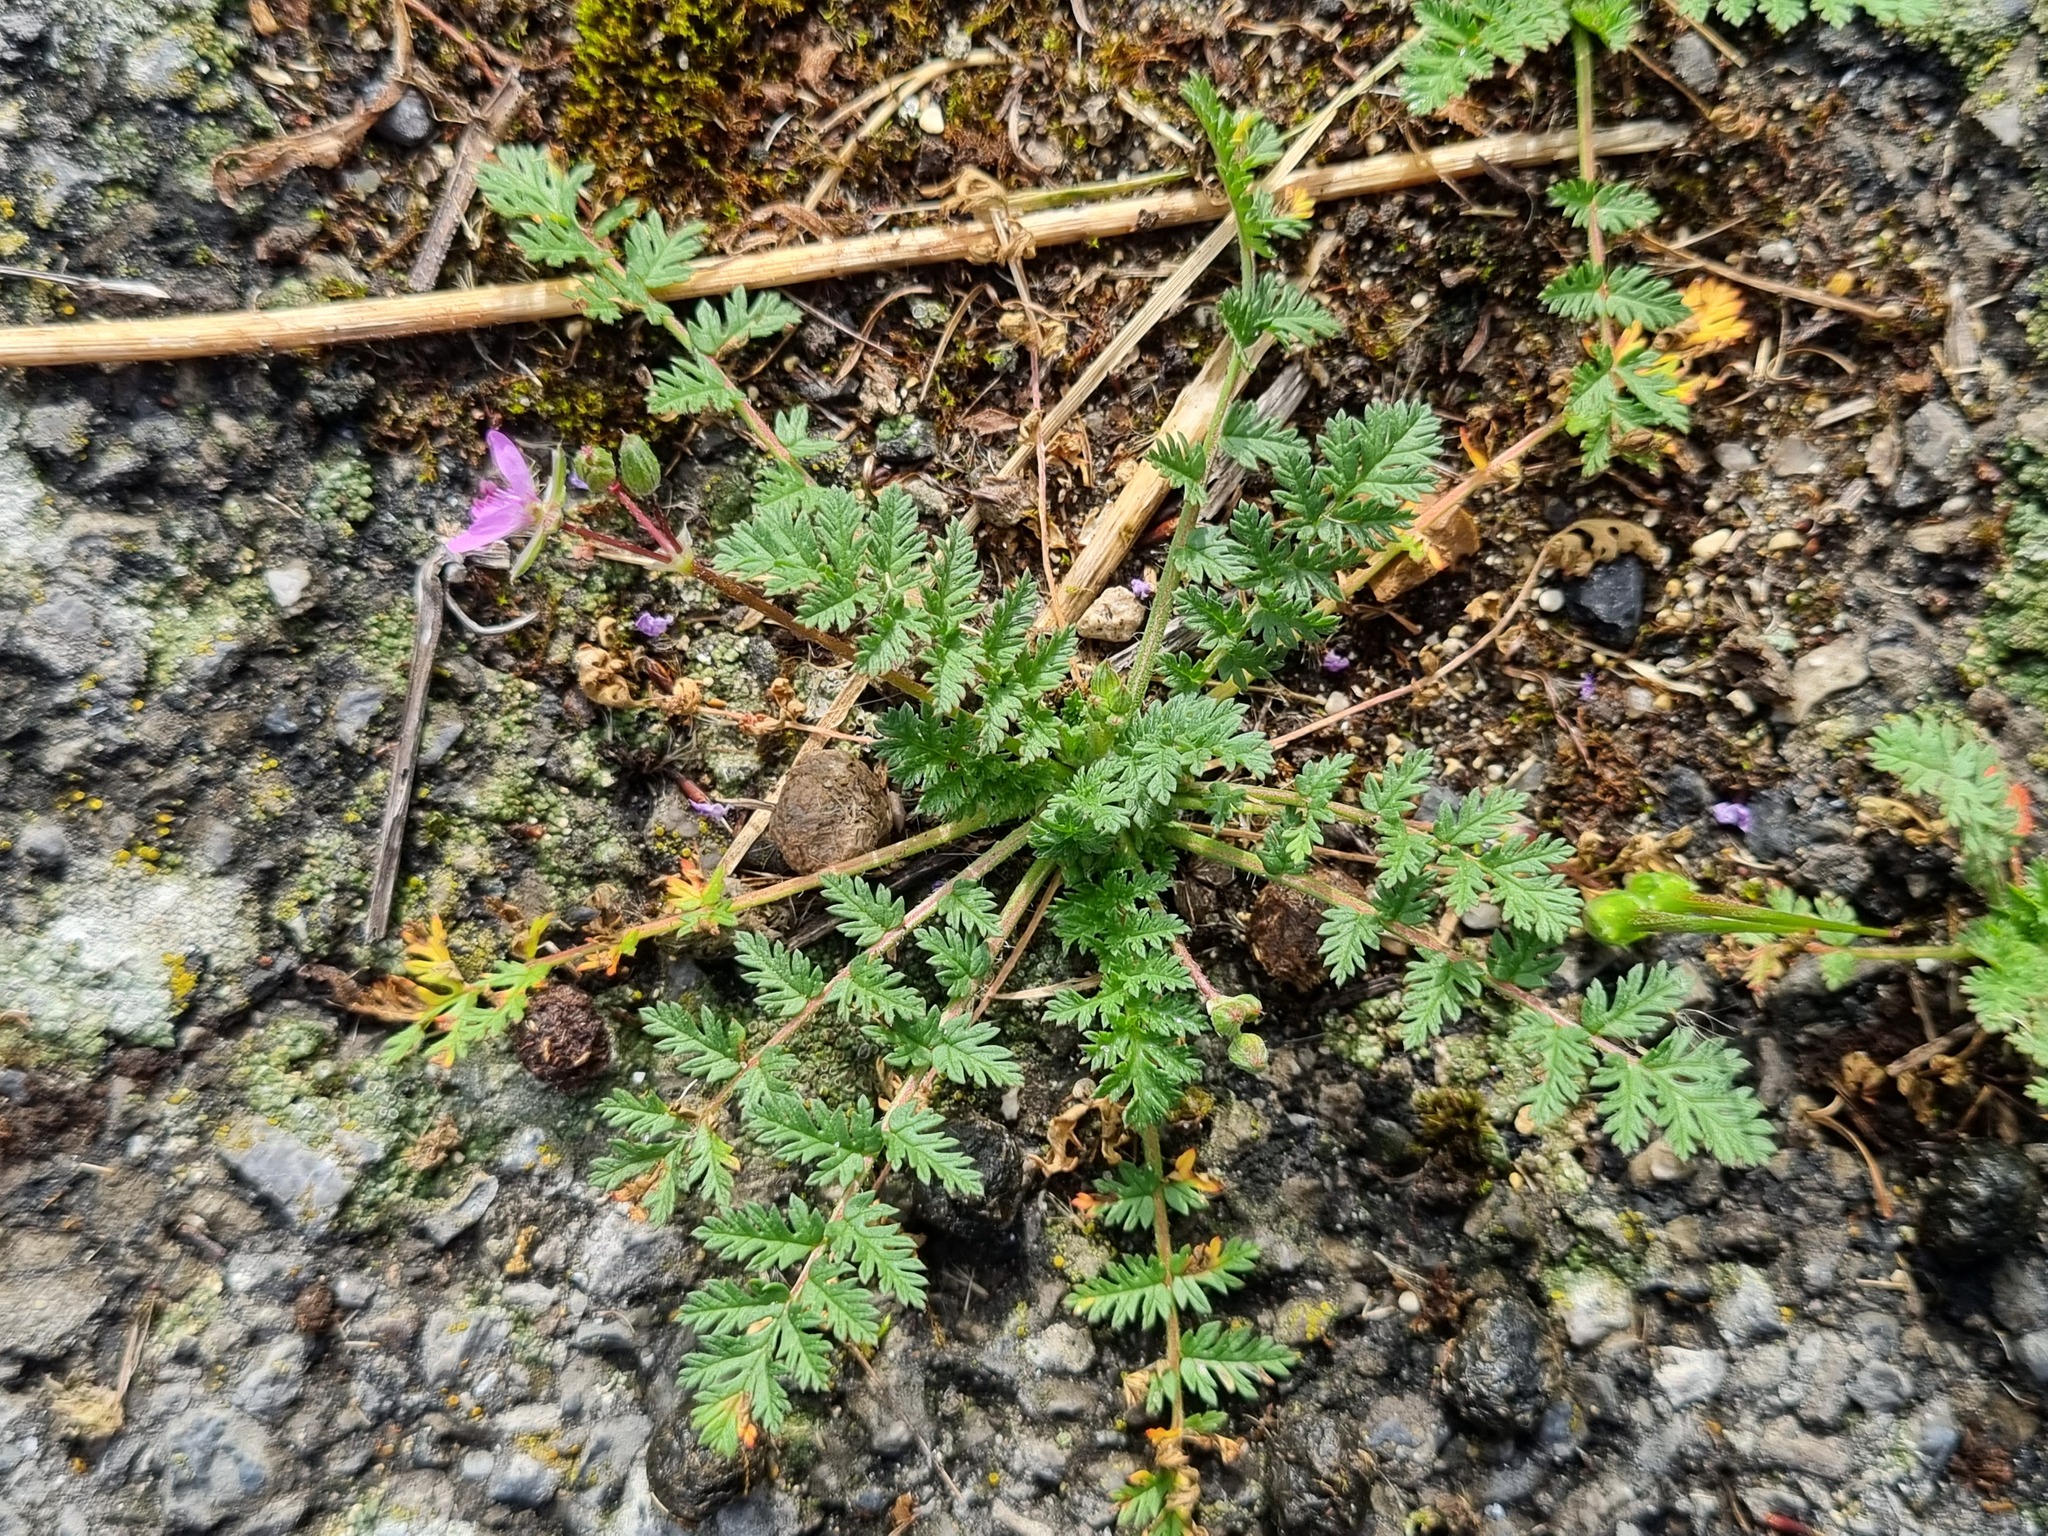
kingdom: Plantae
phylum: Tracheophyta
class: Magnoliopsida
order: Geraniales
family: Geraniaceae
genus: Erodium
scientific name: Erodium cicutarium
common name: Common stork's-bill
